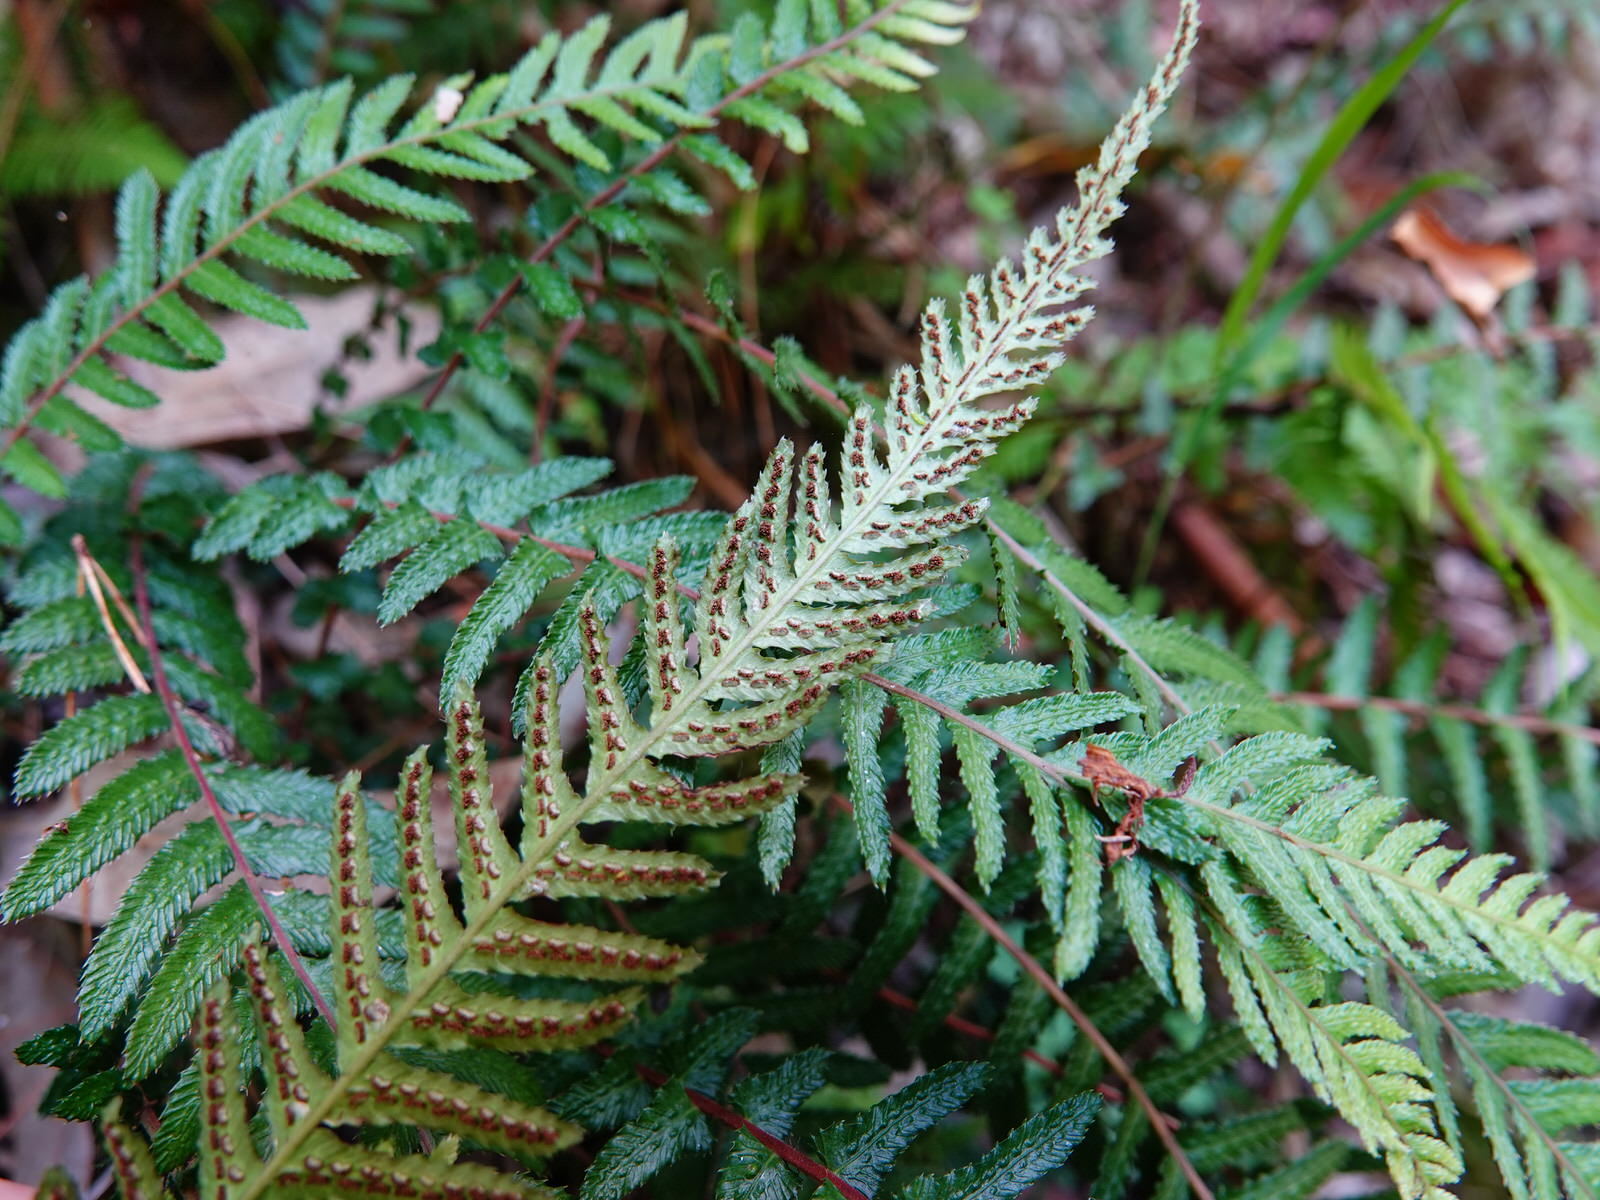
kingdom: Plantae
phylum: Tracheophyta
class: Polypodiopsida
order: Polypodiales
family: Blechnaceae
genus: Doodia
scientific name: Doodia australis
